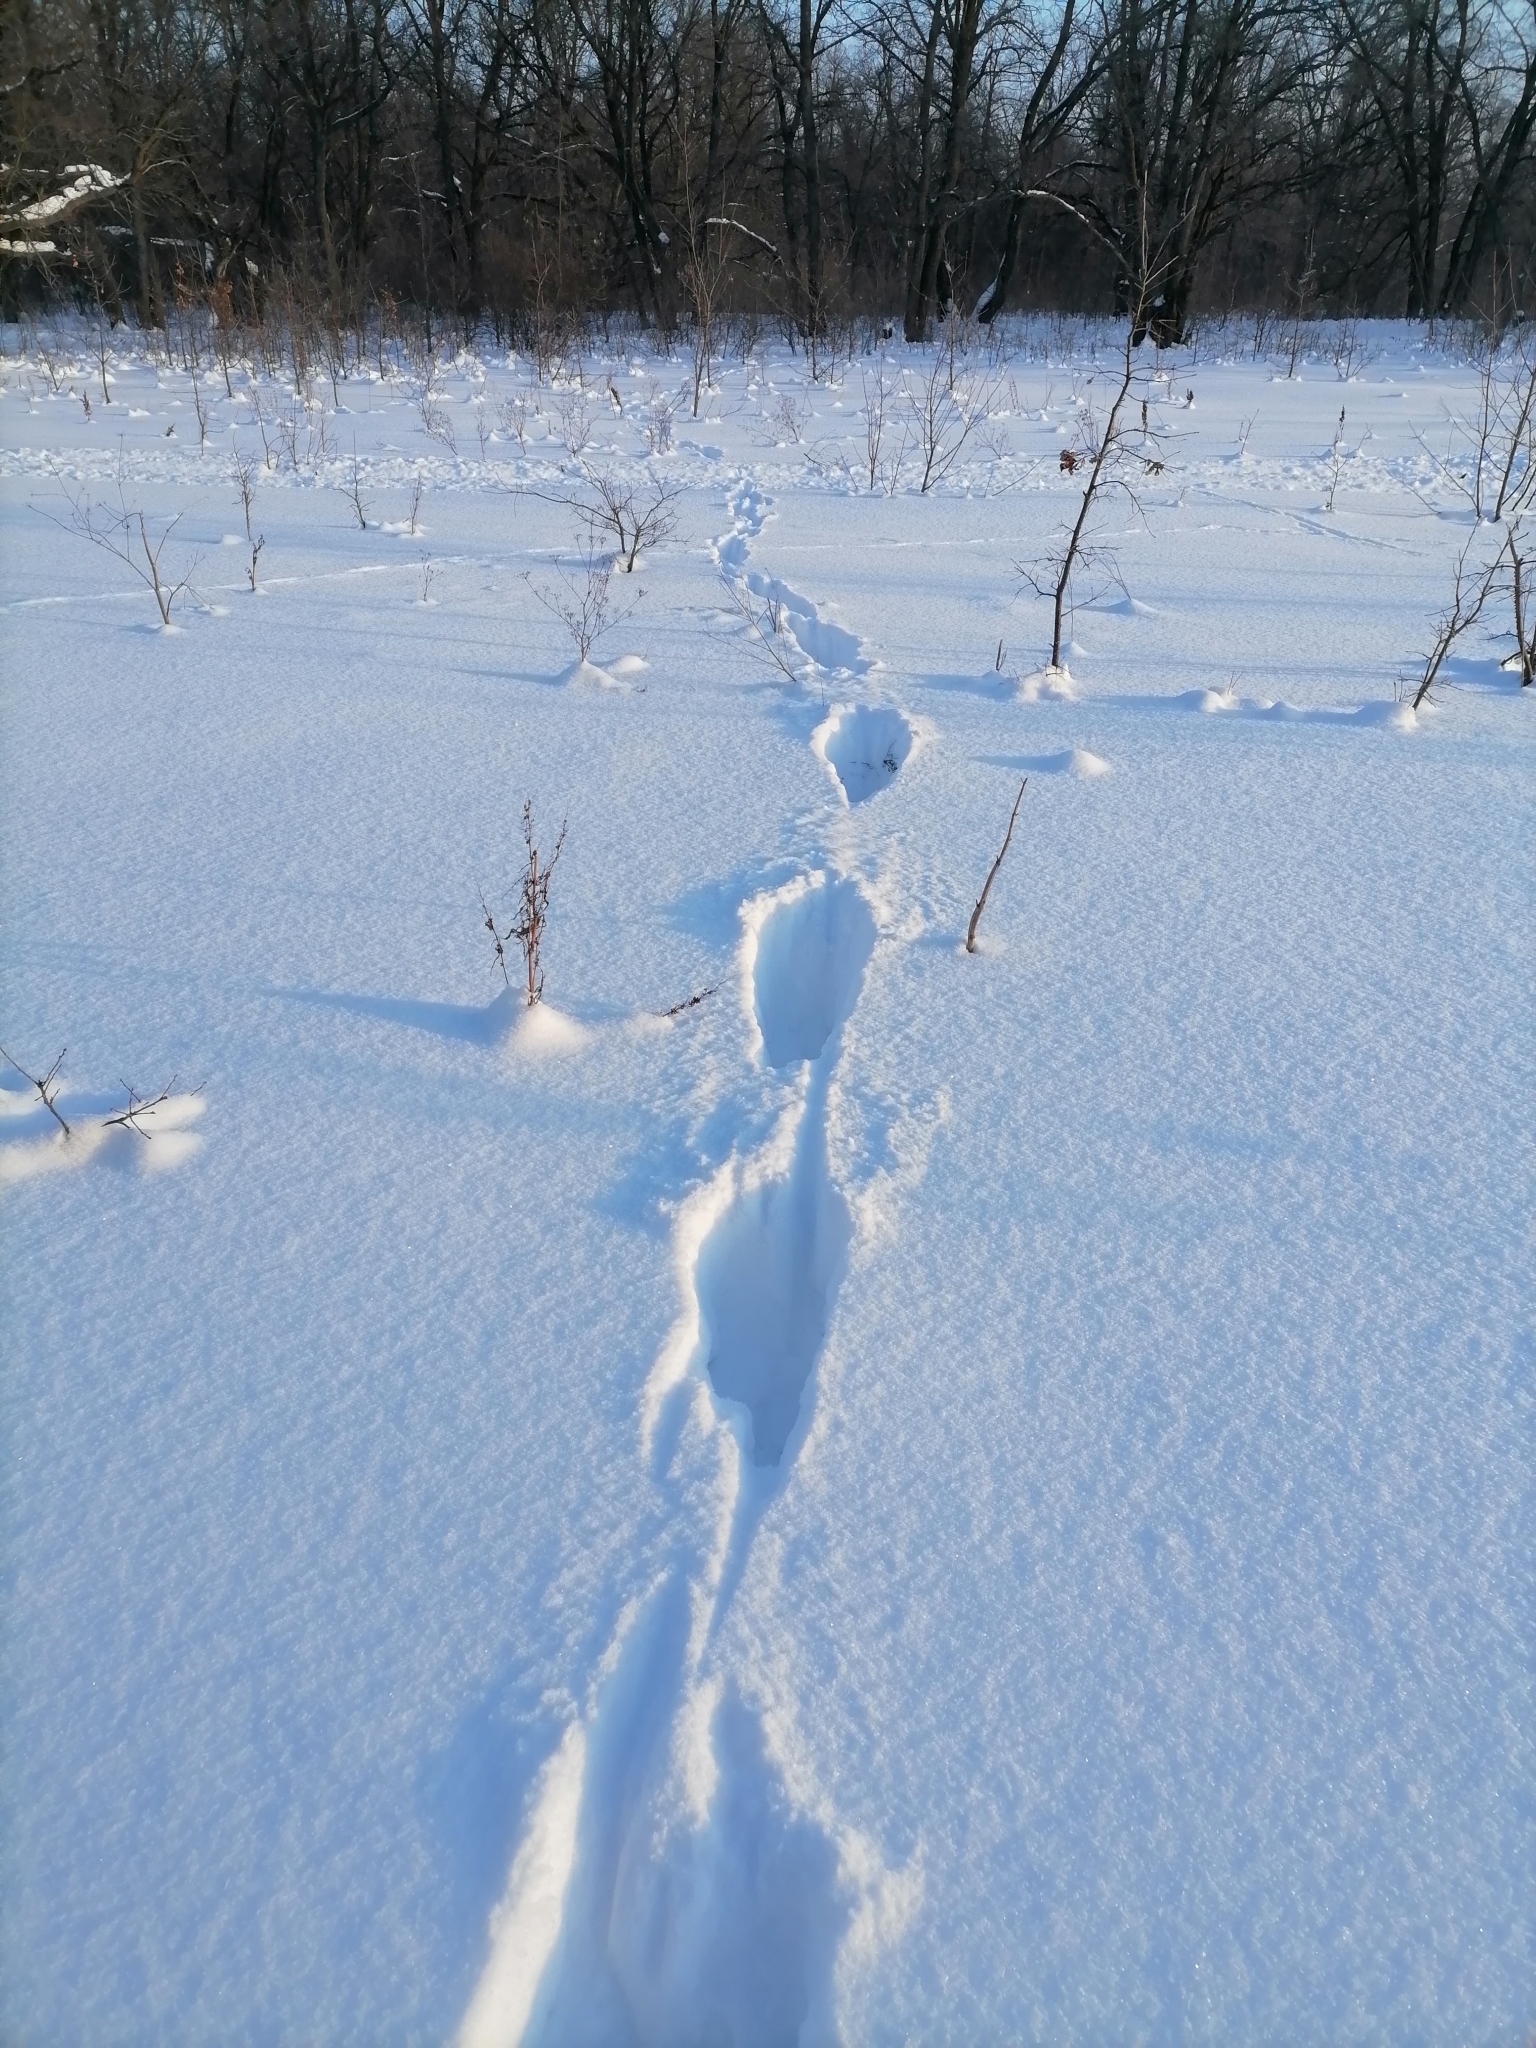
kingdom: Animalia
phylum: Chordata
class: Mammalia
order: Artiodactyla
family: Cervidae
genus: Capreolus
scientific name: Capreolus pygargus
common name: Siberian roe
